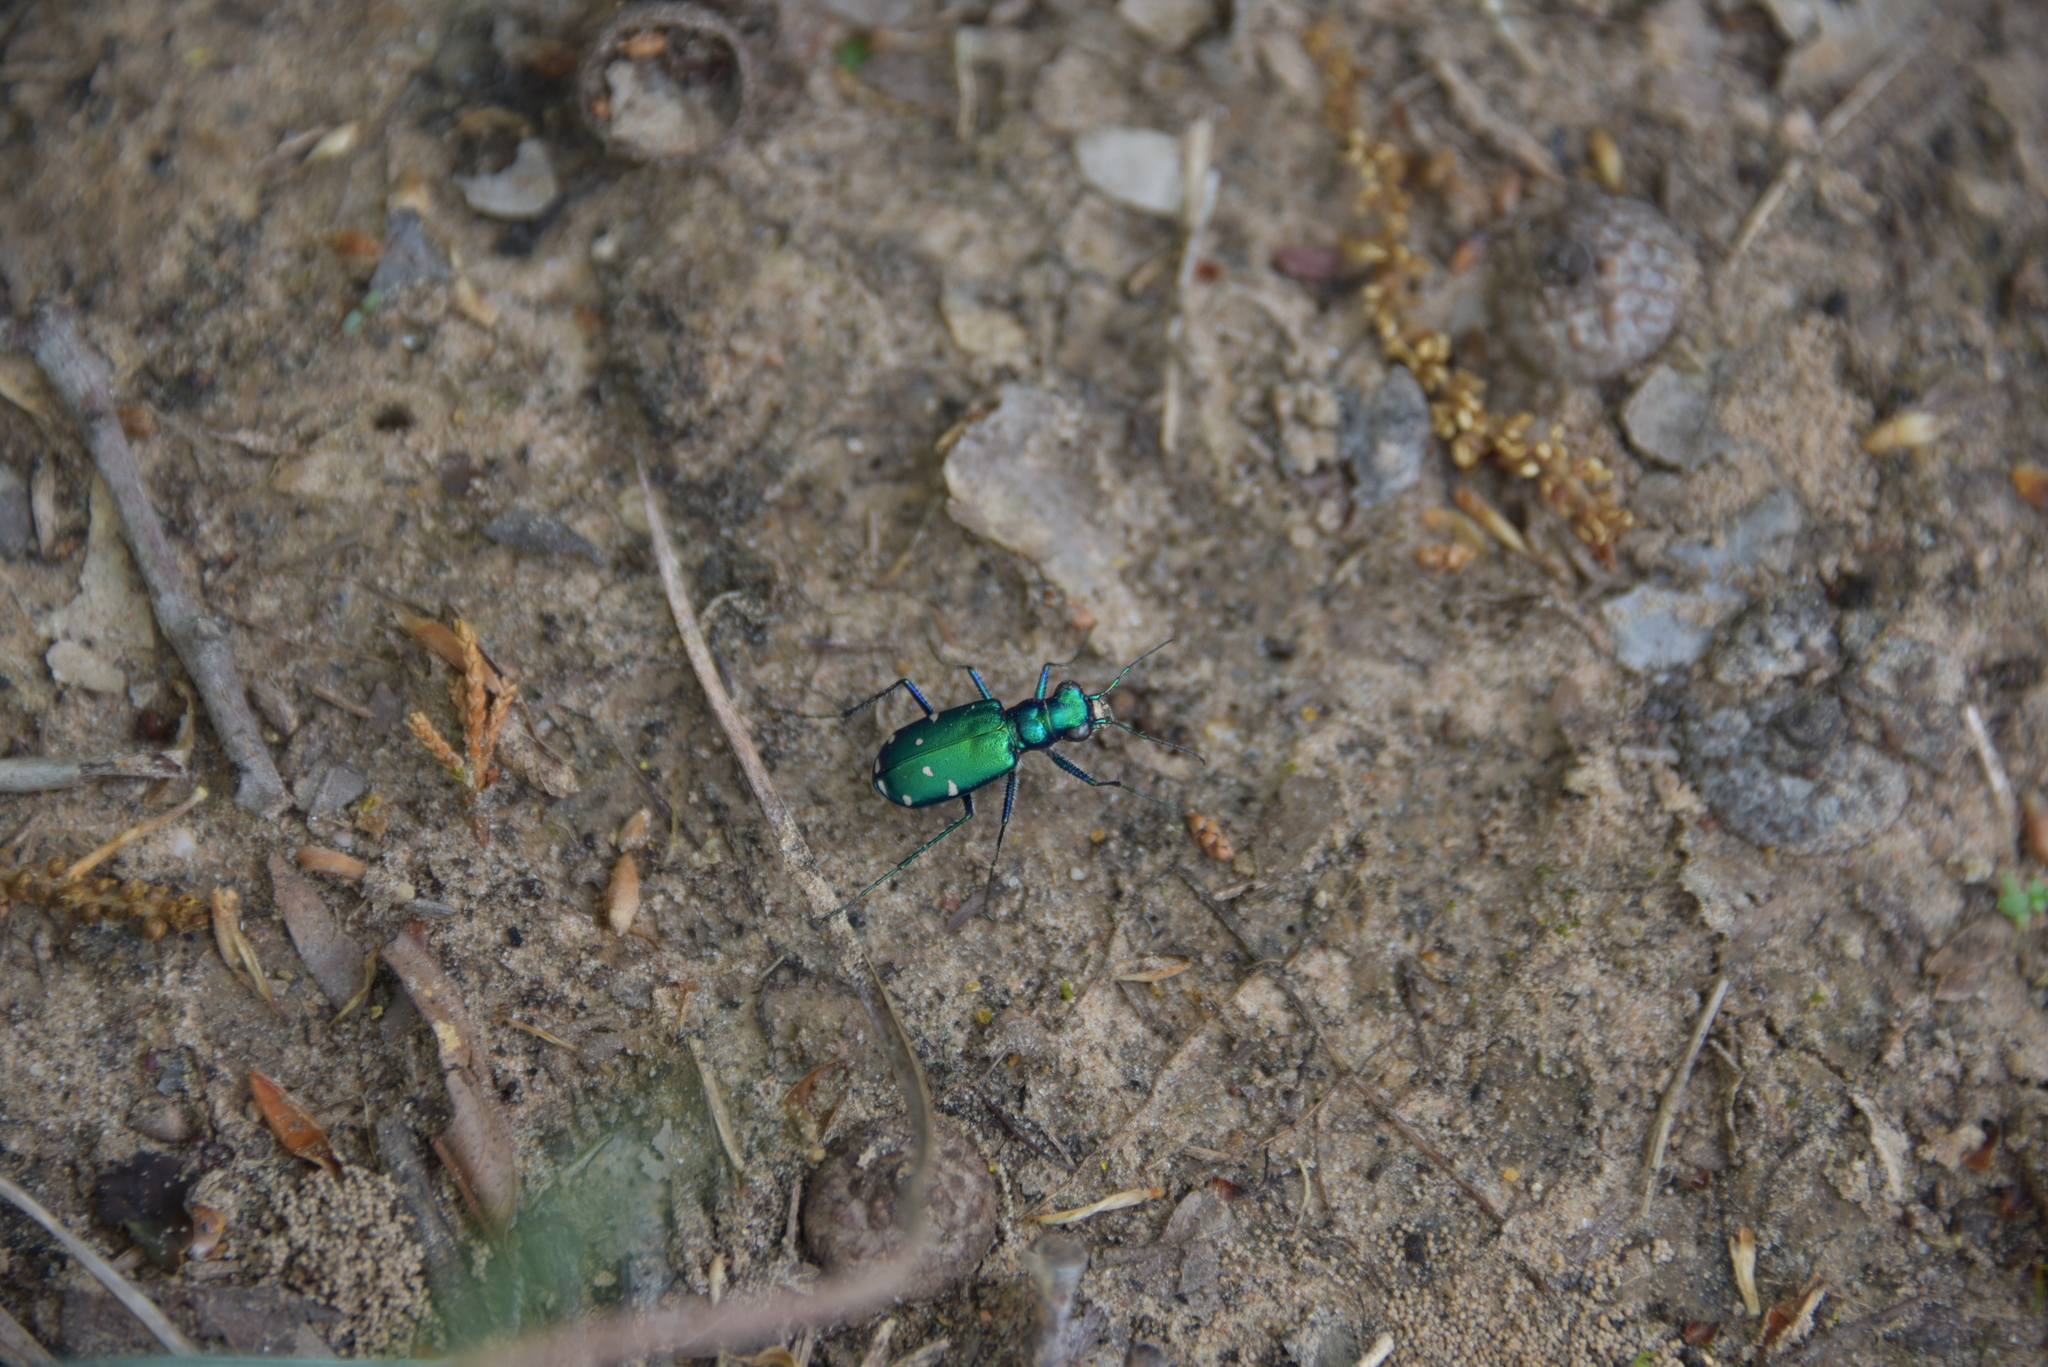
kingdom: Animalia
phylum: Arthropoda
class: Insecta
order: Coleoptera
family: Carabidae
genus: Cicindela
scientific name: Cicindela sexguttata
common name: Six-spotted tiger beetle
